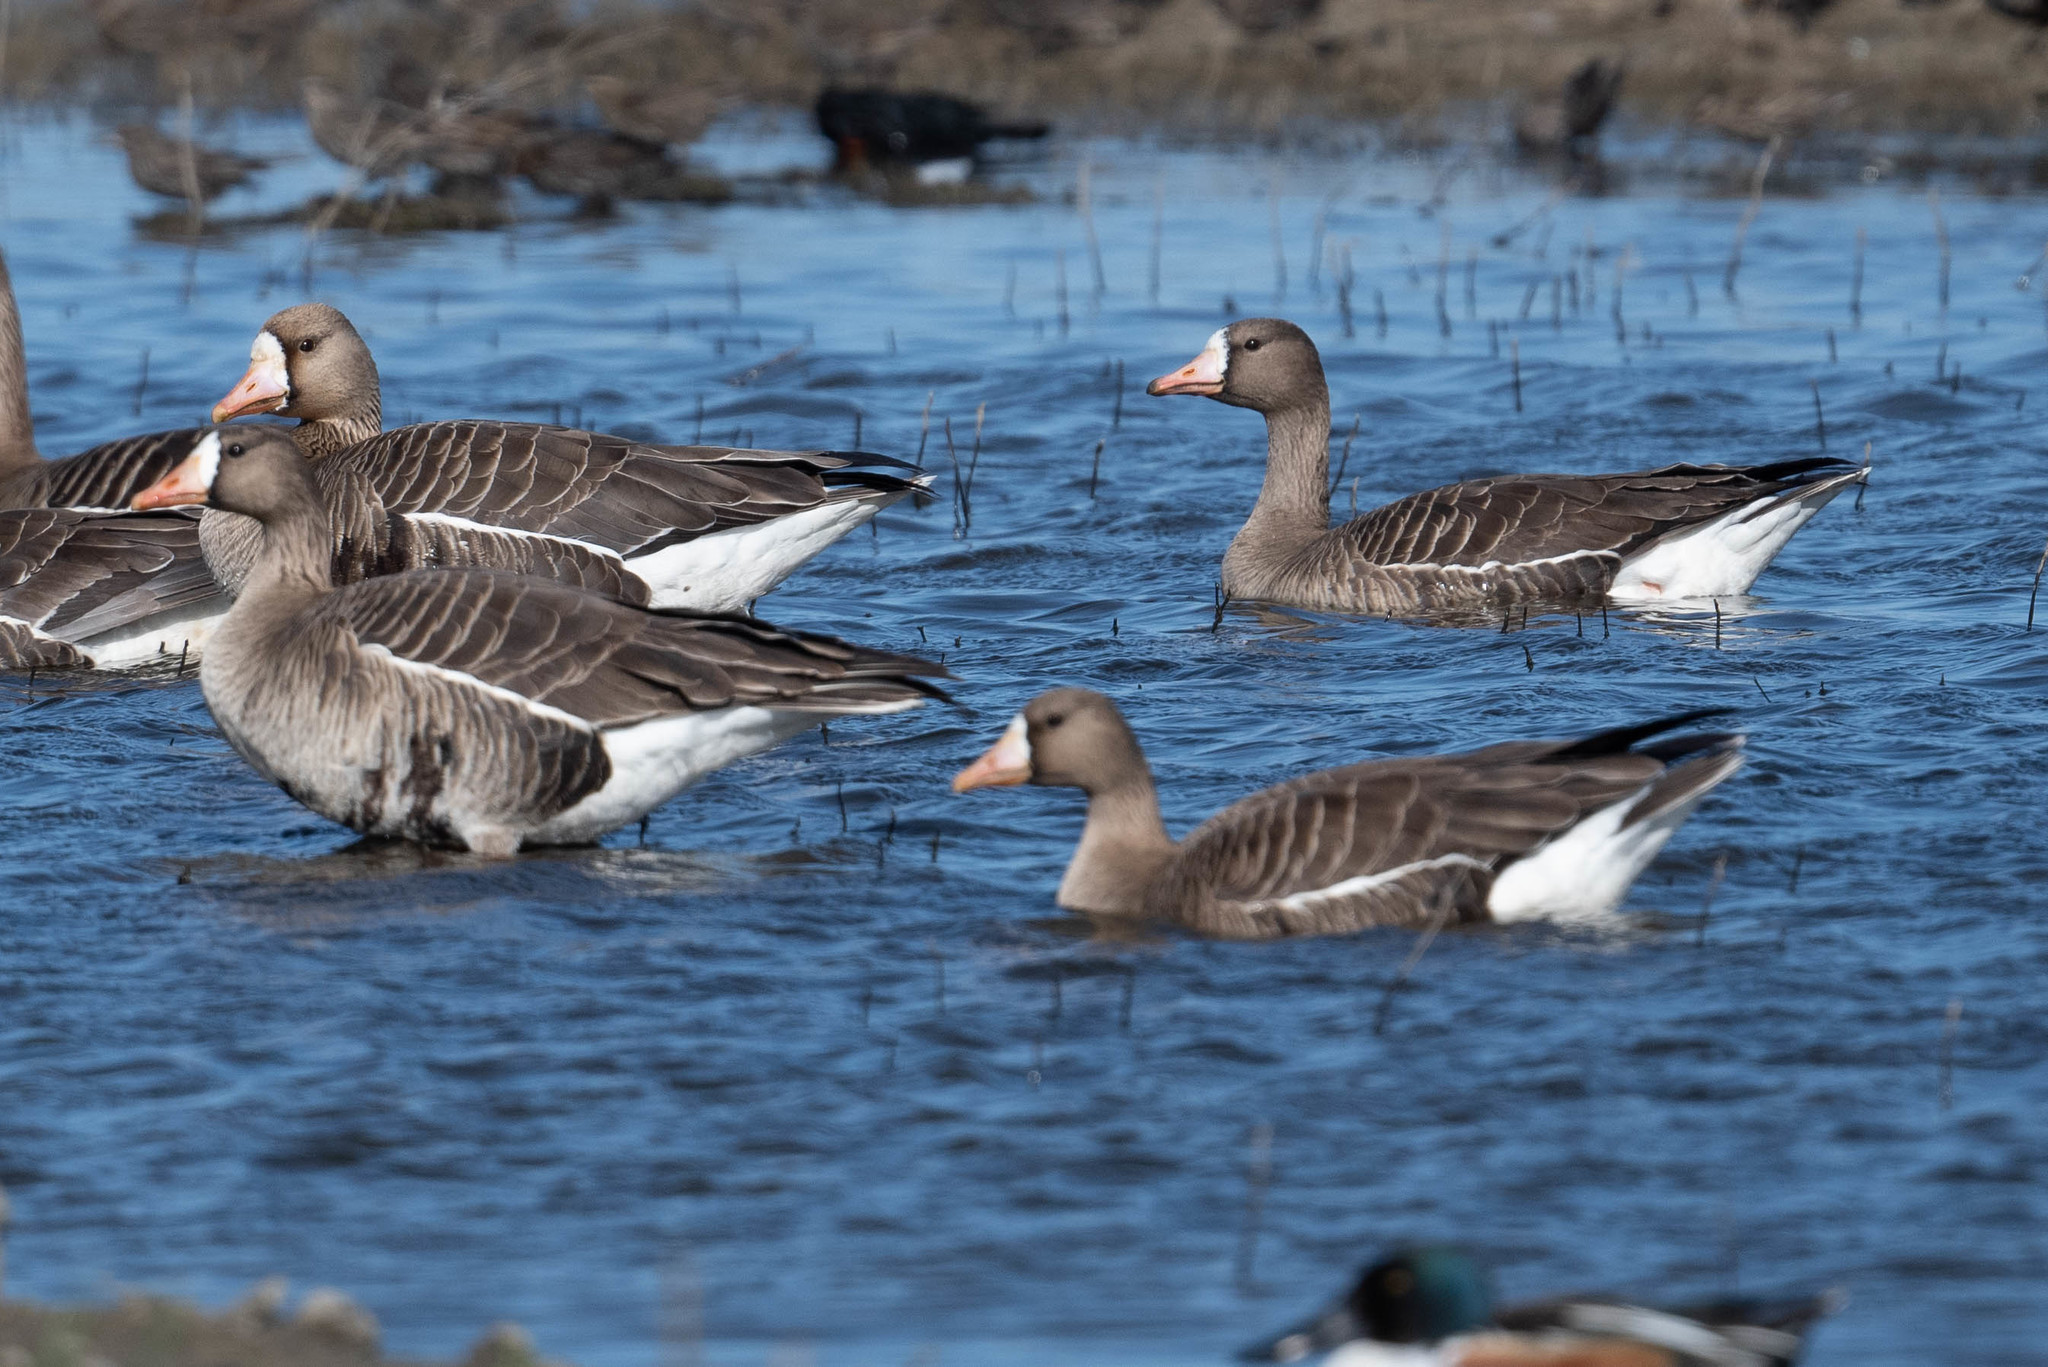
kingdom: Animalia
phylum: Chordata
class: Aves
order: Anseriformes
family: Anatidae
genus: Anser
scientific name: Anser albifrons
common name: Greater white-fronted goose
